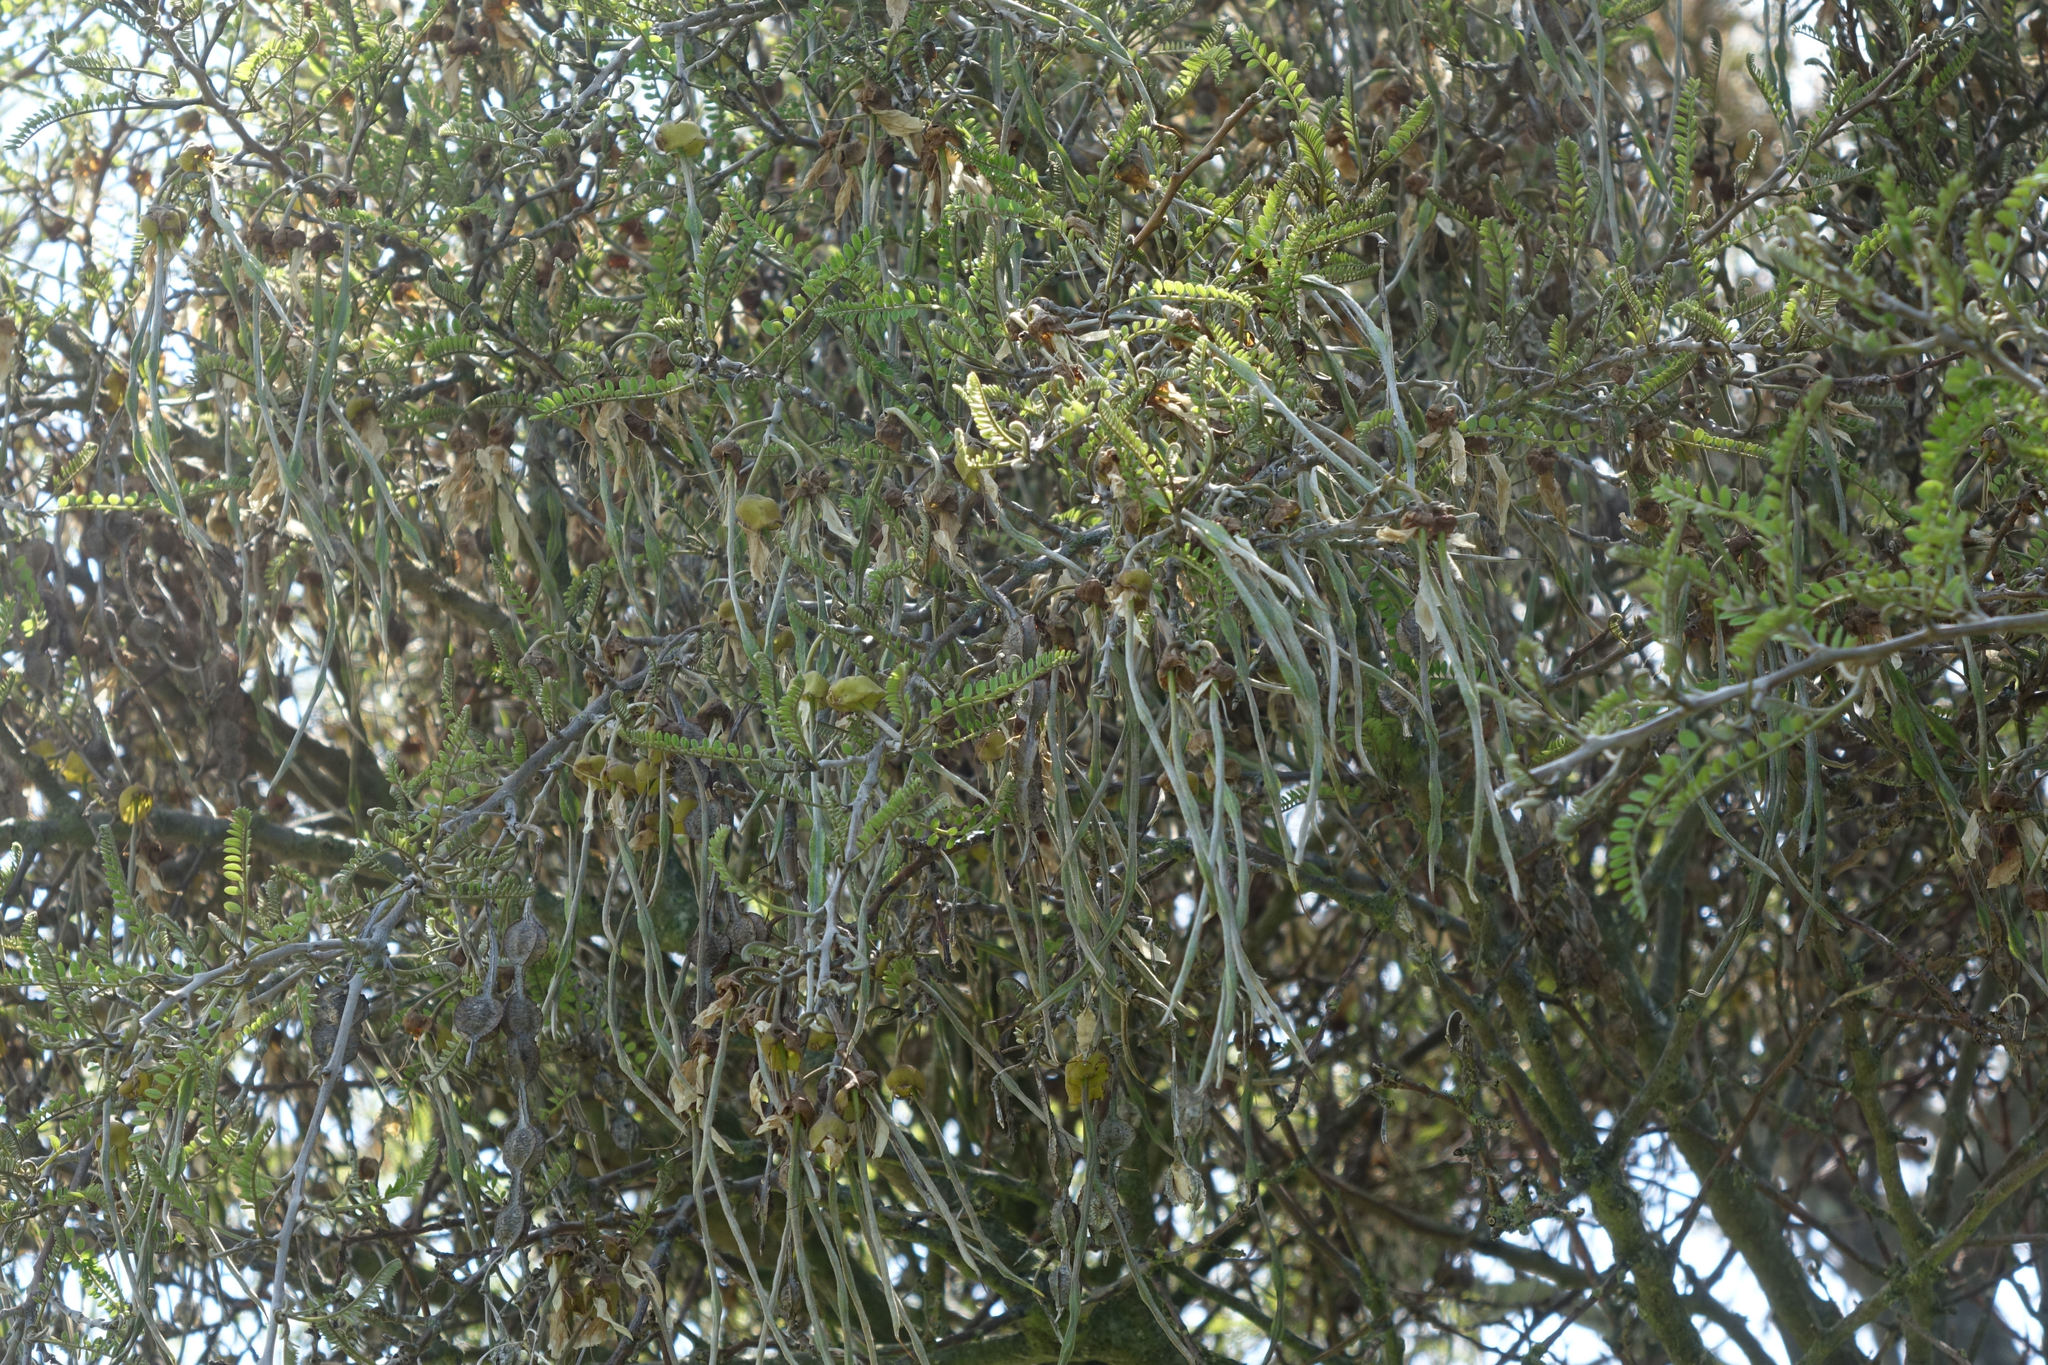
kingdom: Plantae
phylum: Tracheophyta
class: Magnoliopsida
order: Fabales
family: Fabaceae
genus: Sophora
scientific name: Sophora microphylla
